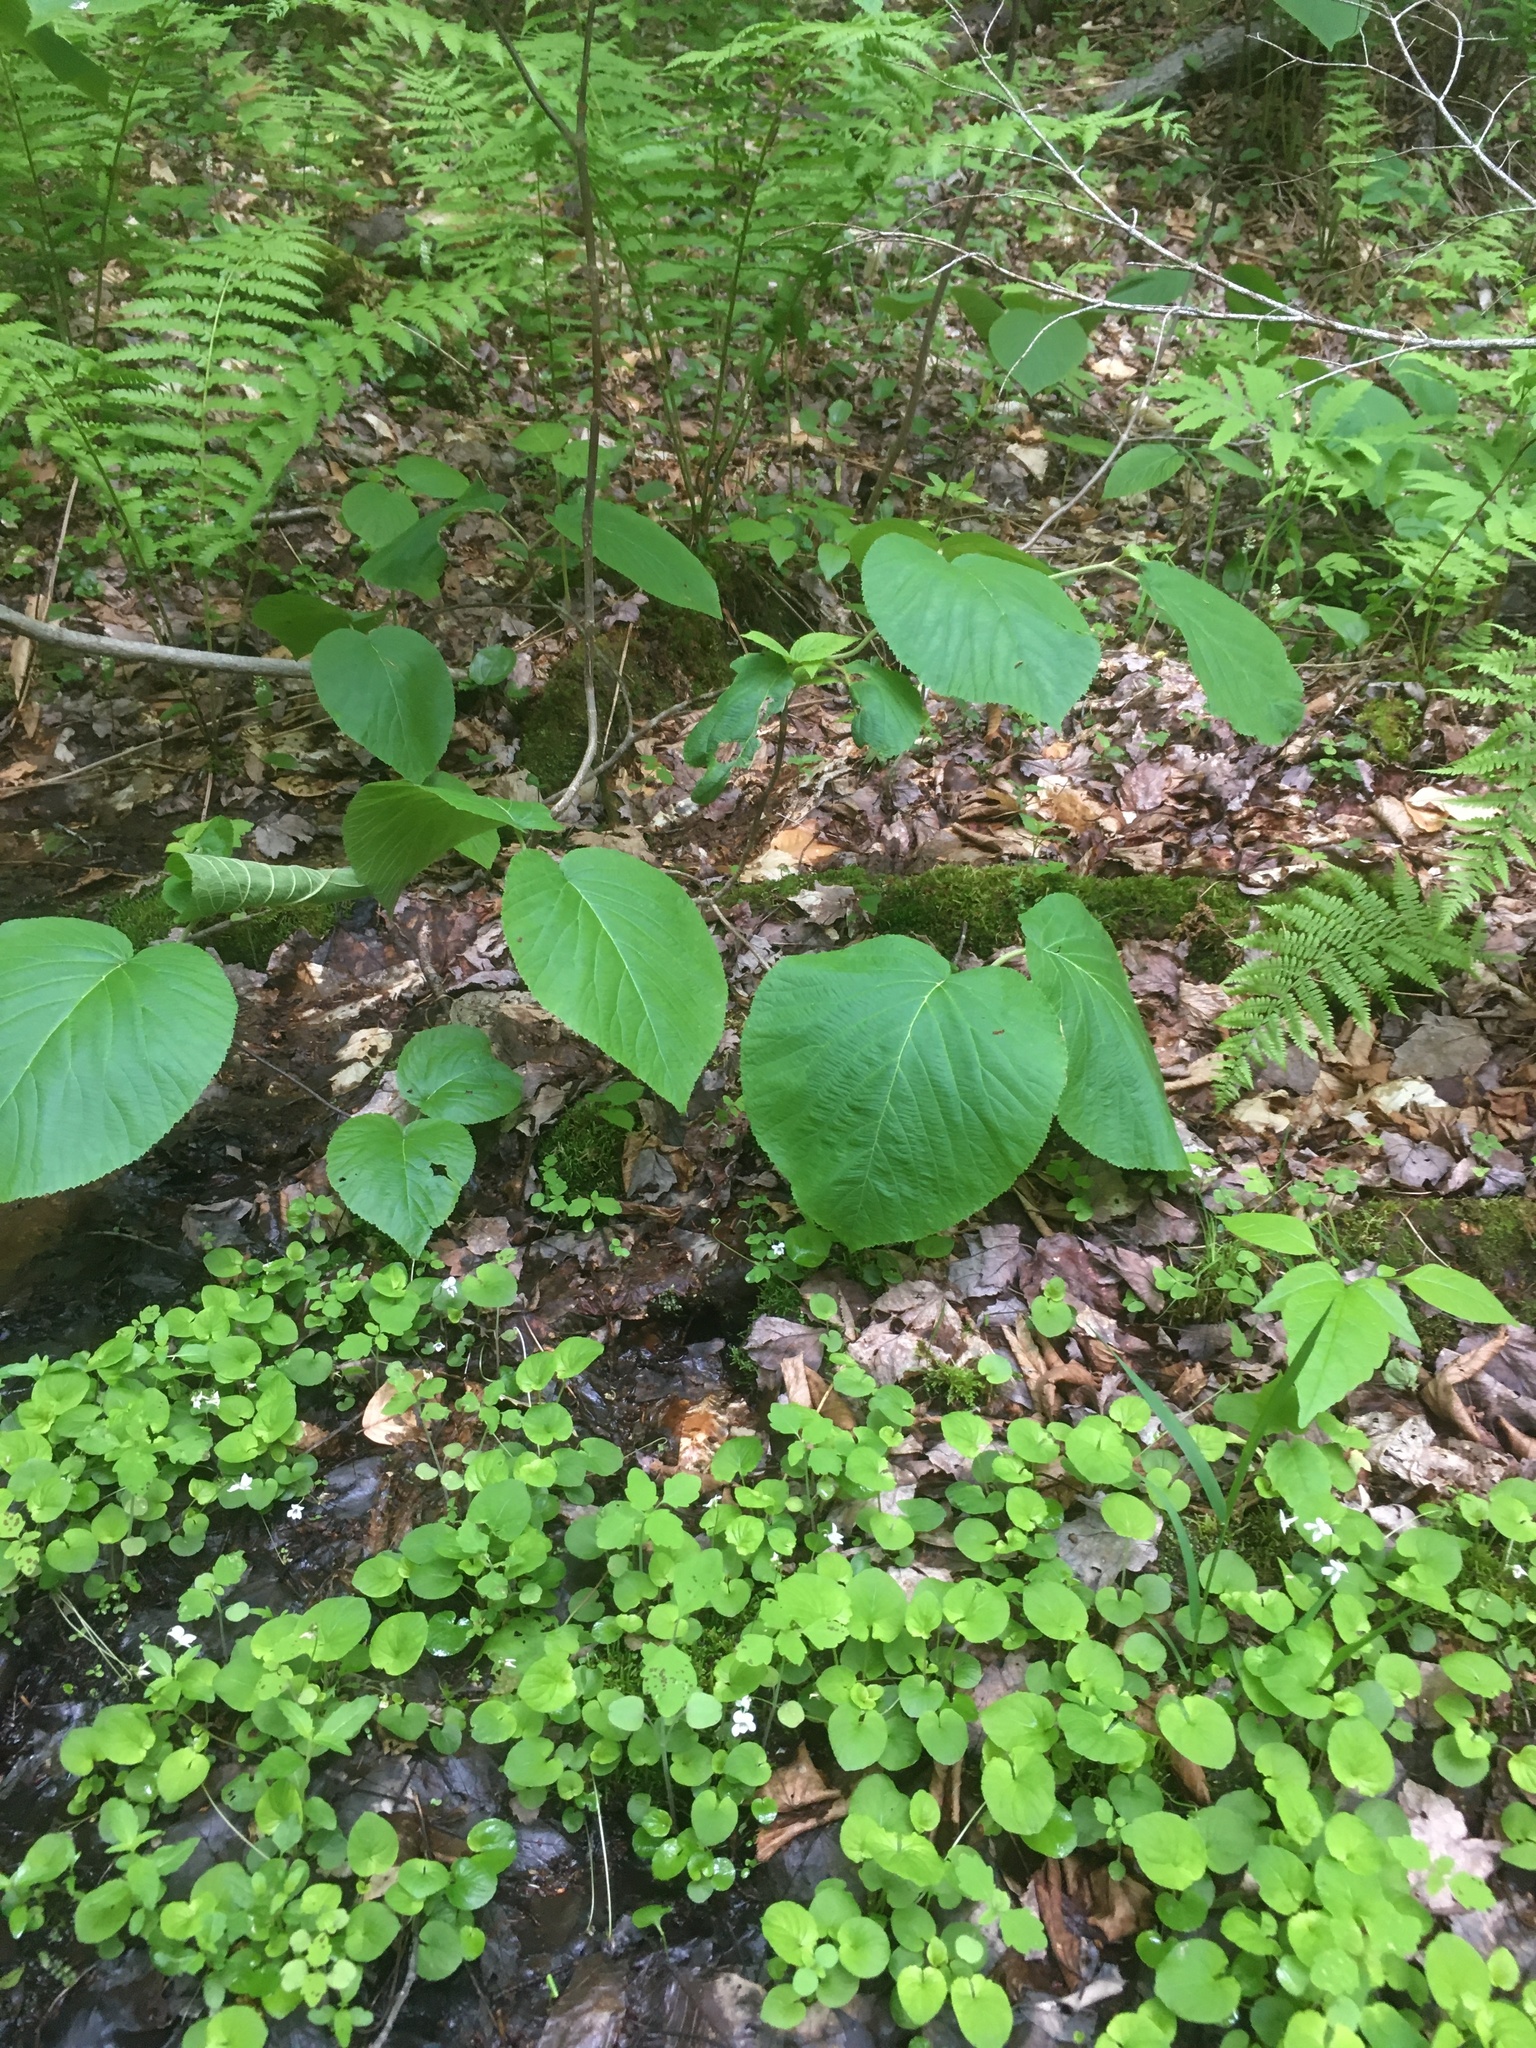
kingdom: Plantae
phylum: Tracheophyta
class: Magnoliopsida
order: Dipsacales
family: Viburnaceae
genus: Viburnum
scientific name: Viburnum lantanoides
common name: Hobblebush
